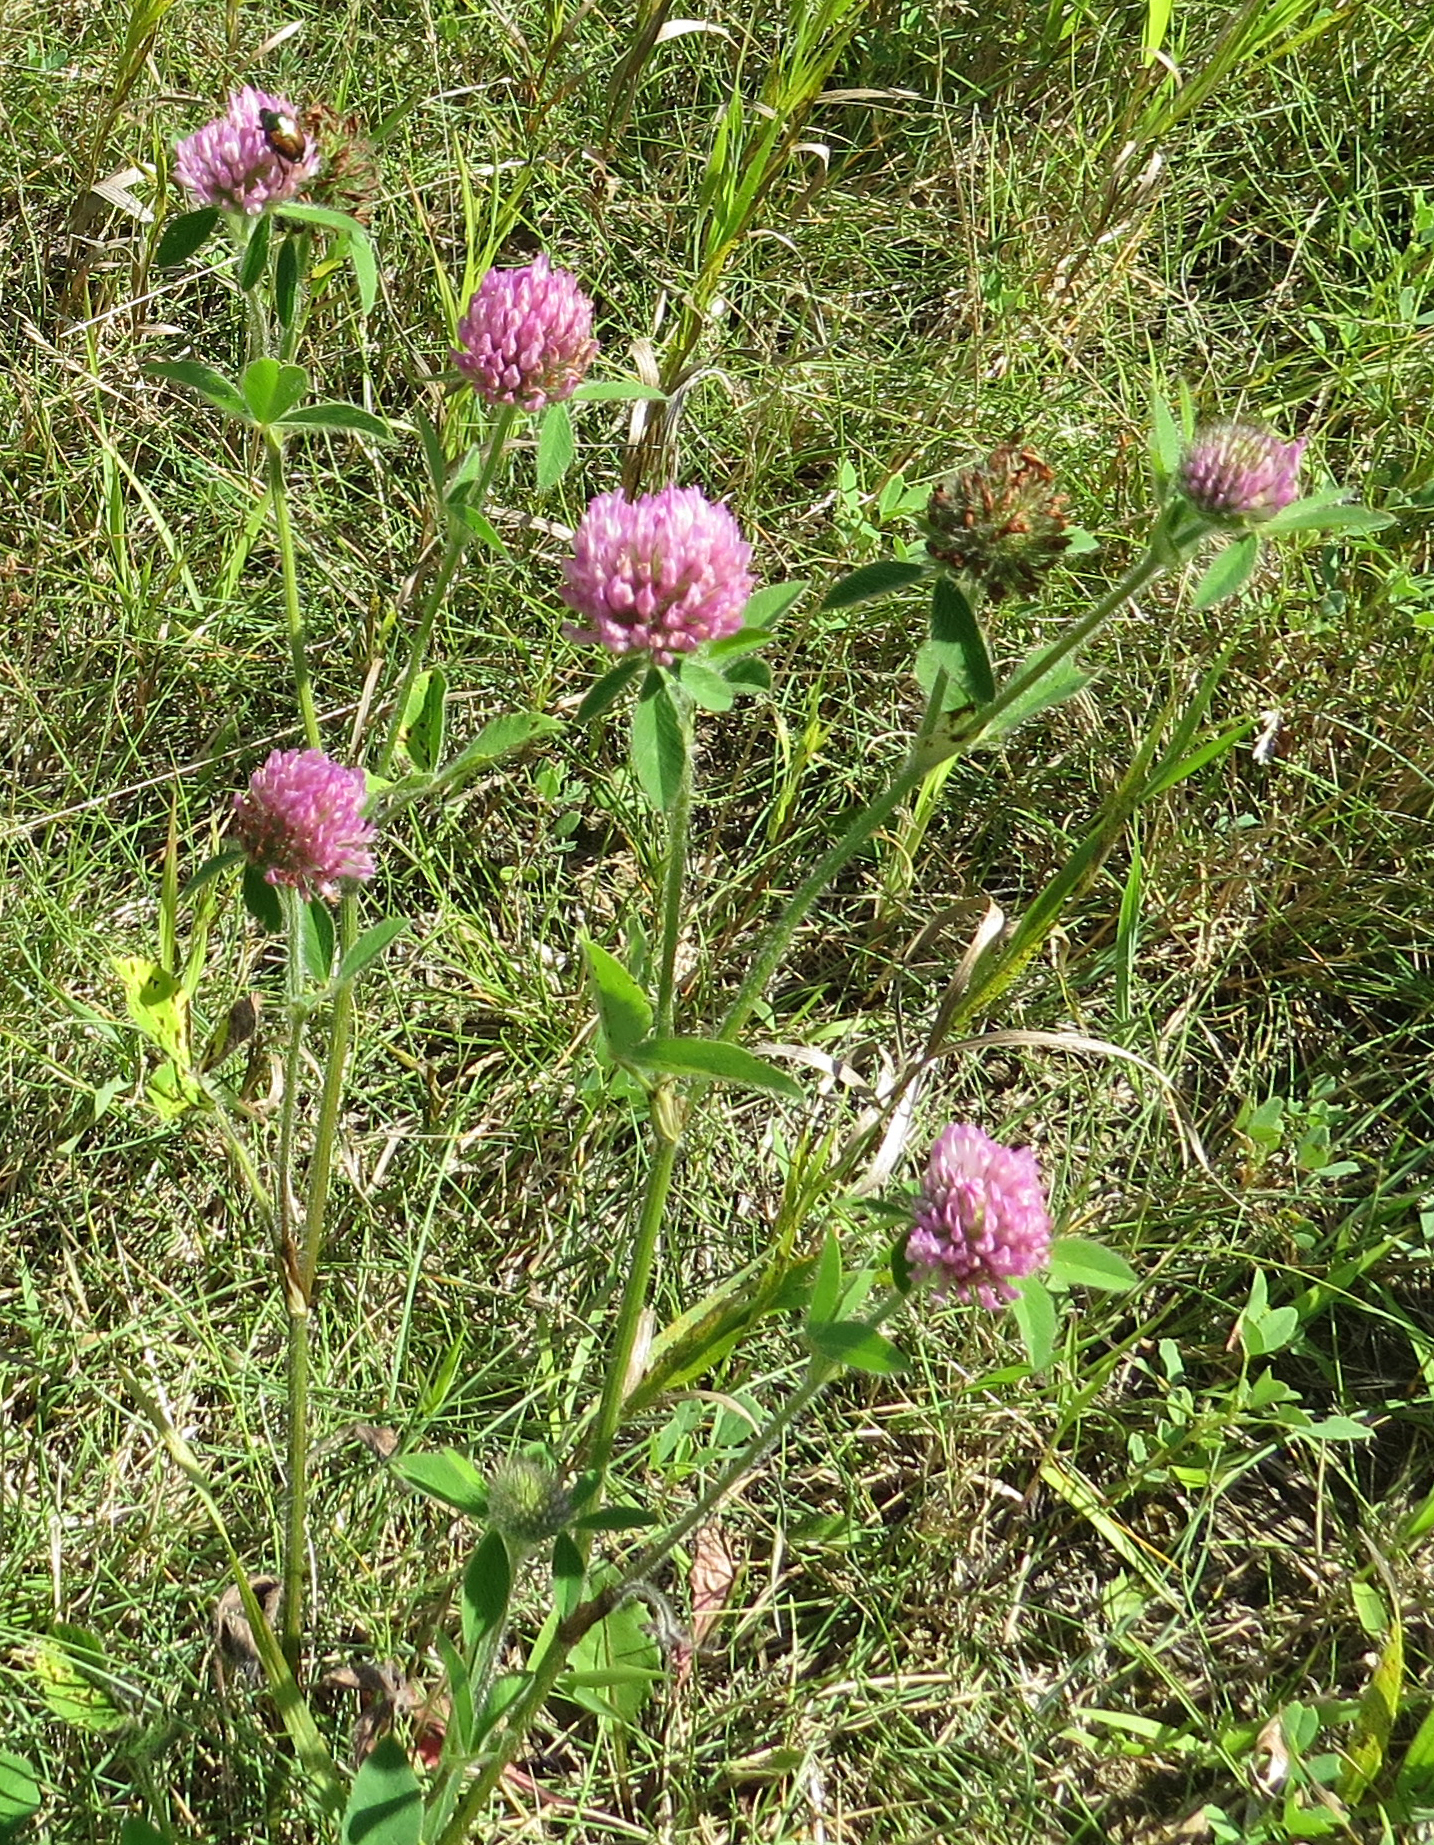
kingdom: Plantae
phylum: Tracheophyta
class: Magnoliopsida
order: Fabales
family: Fabaceae
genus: Trifolium
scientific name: Trifolium pratense
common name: Red clover
